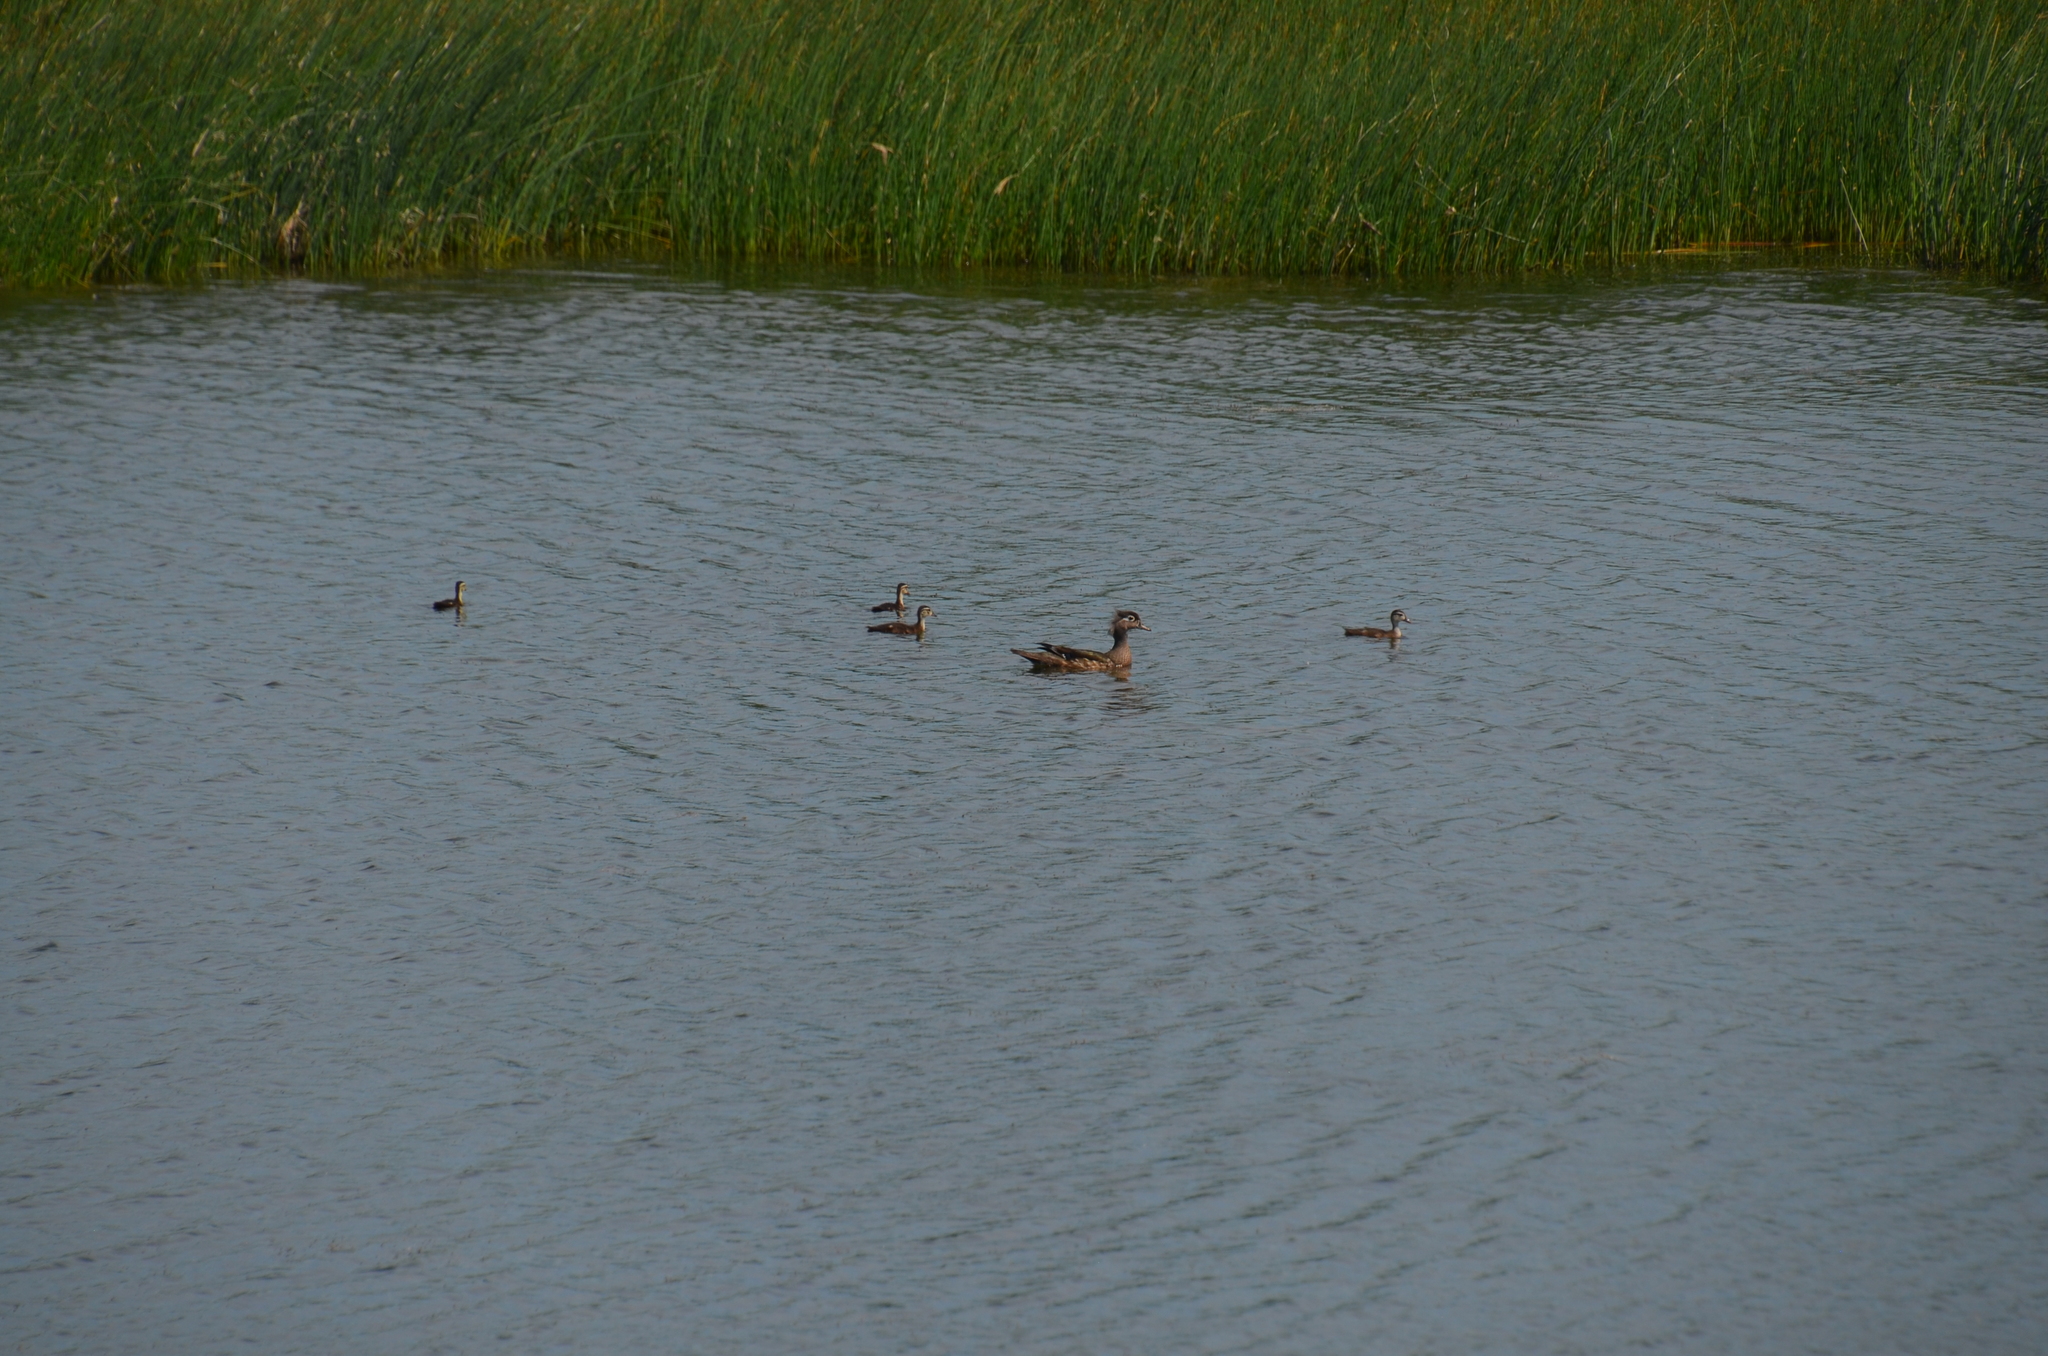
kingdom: Animalia
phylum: Chordata
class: Aves
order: Anseriformes
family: Anatidae
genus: Aix
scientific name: Aix sponsa
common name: Wood duck
